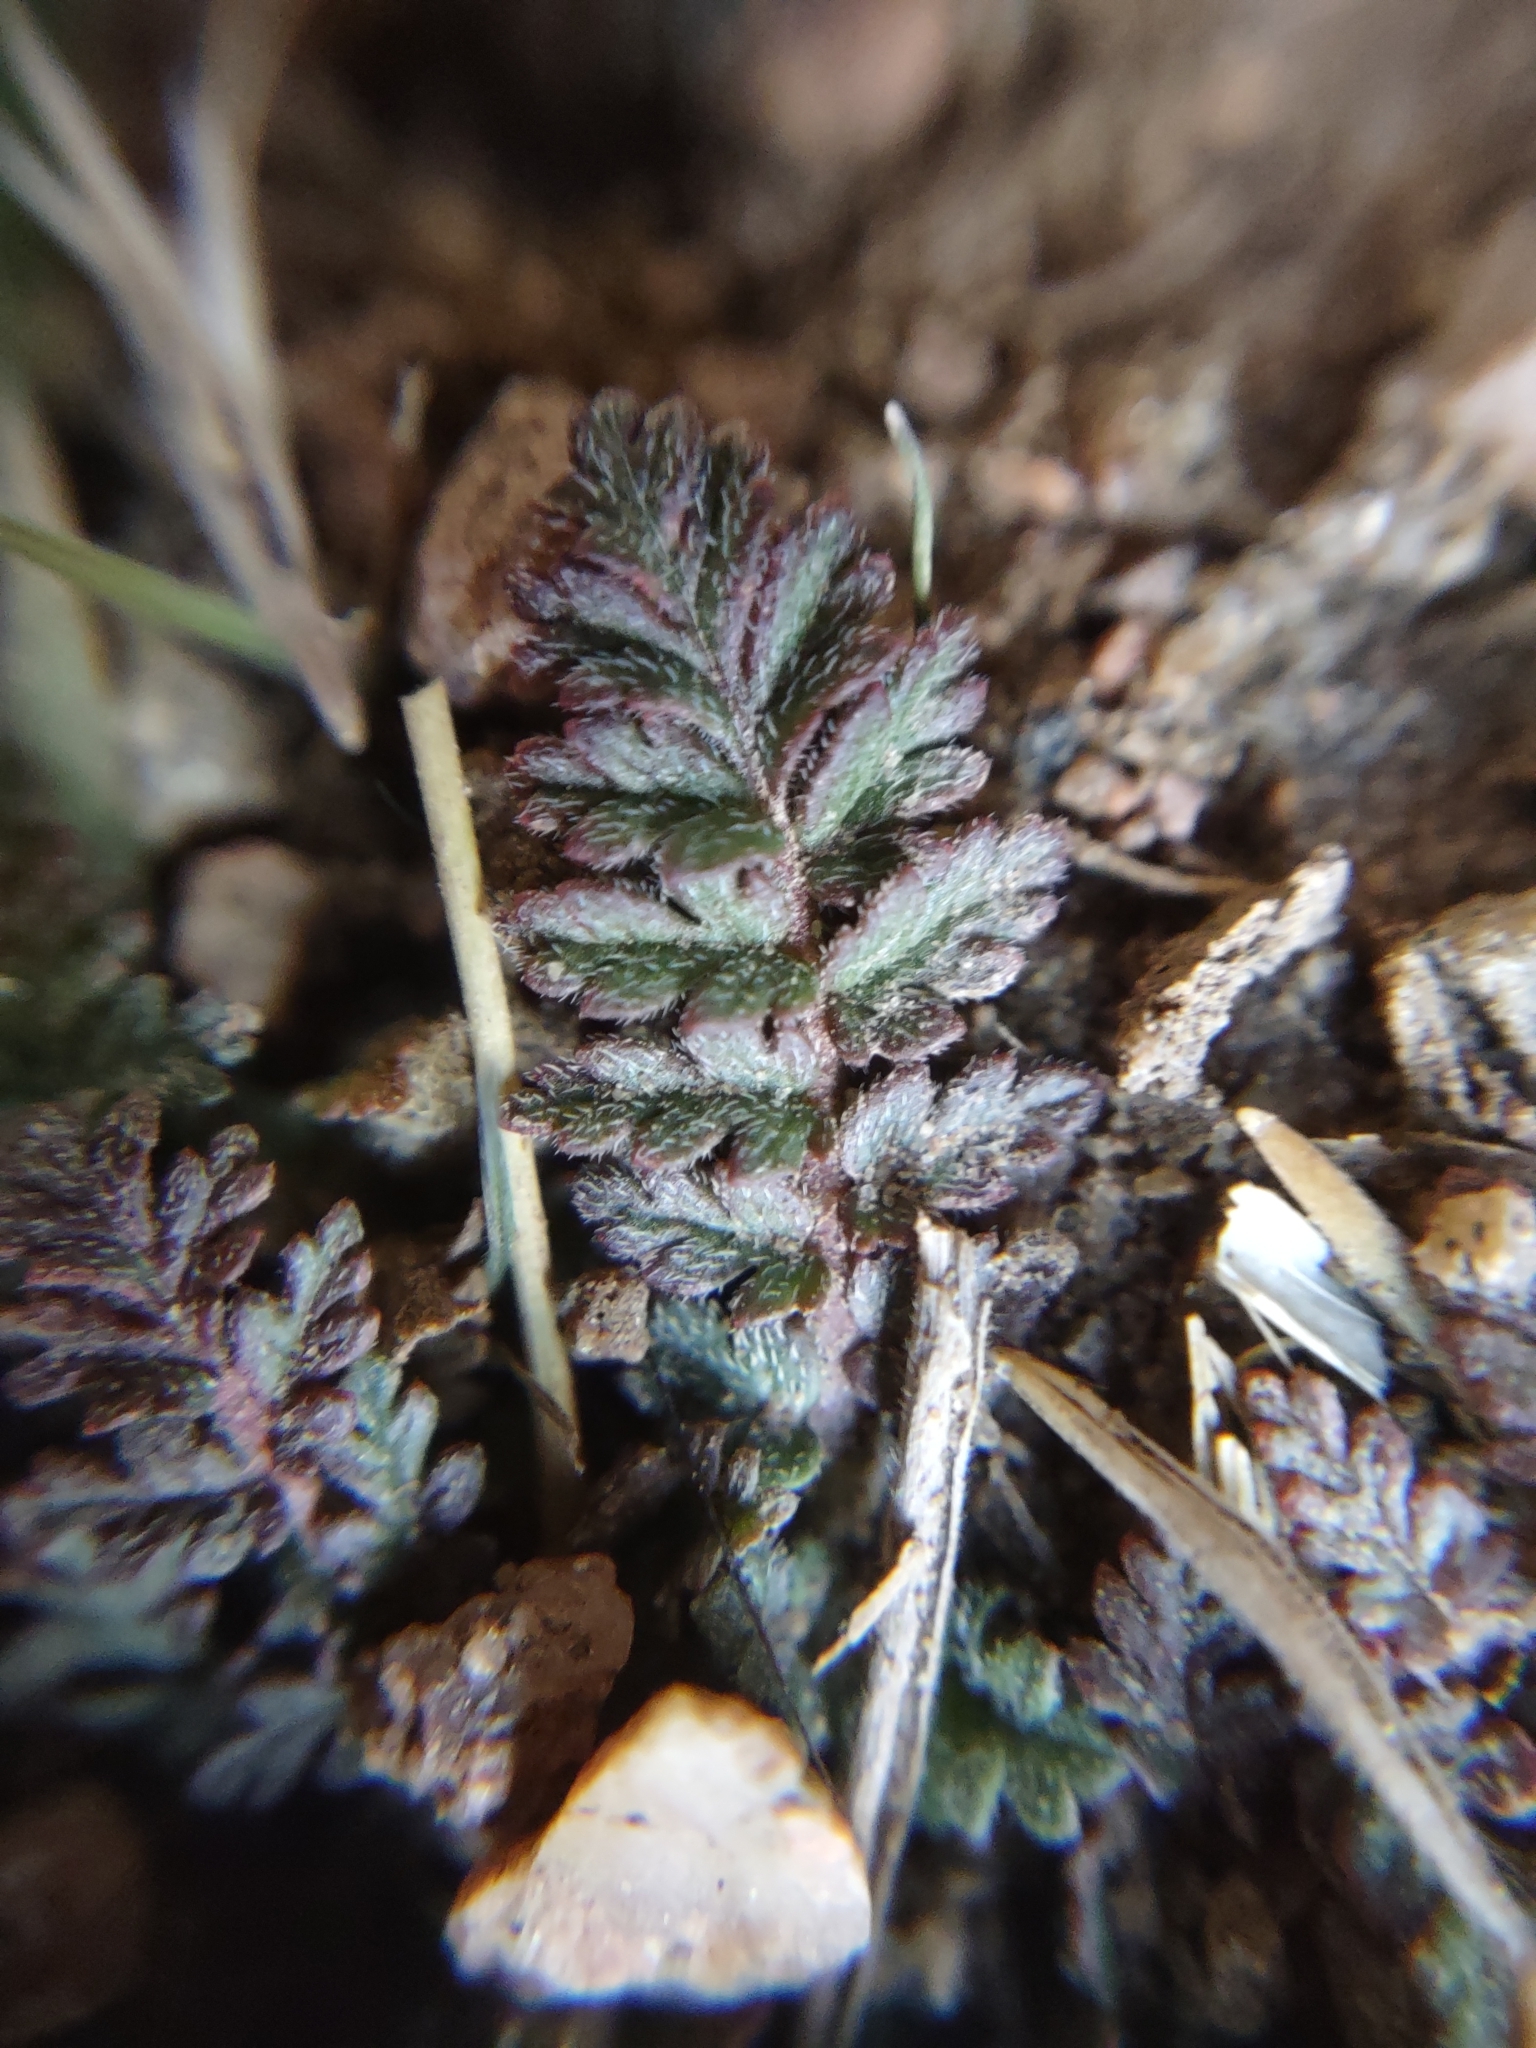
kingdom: Plantae
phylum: Tracheophyta
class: Magnoliopsida
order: Geraniales
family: Geraniaceae
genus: Erodium
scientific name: Erodium cicutarium
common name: Common stork's-bill
